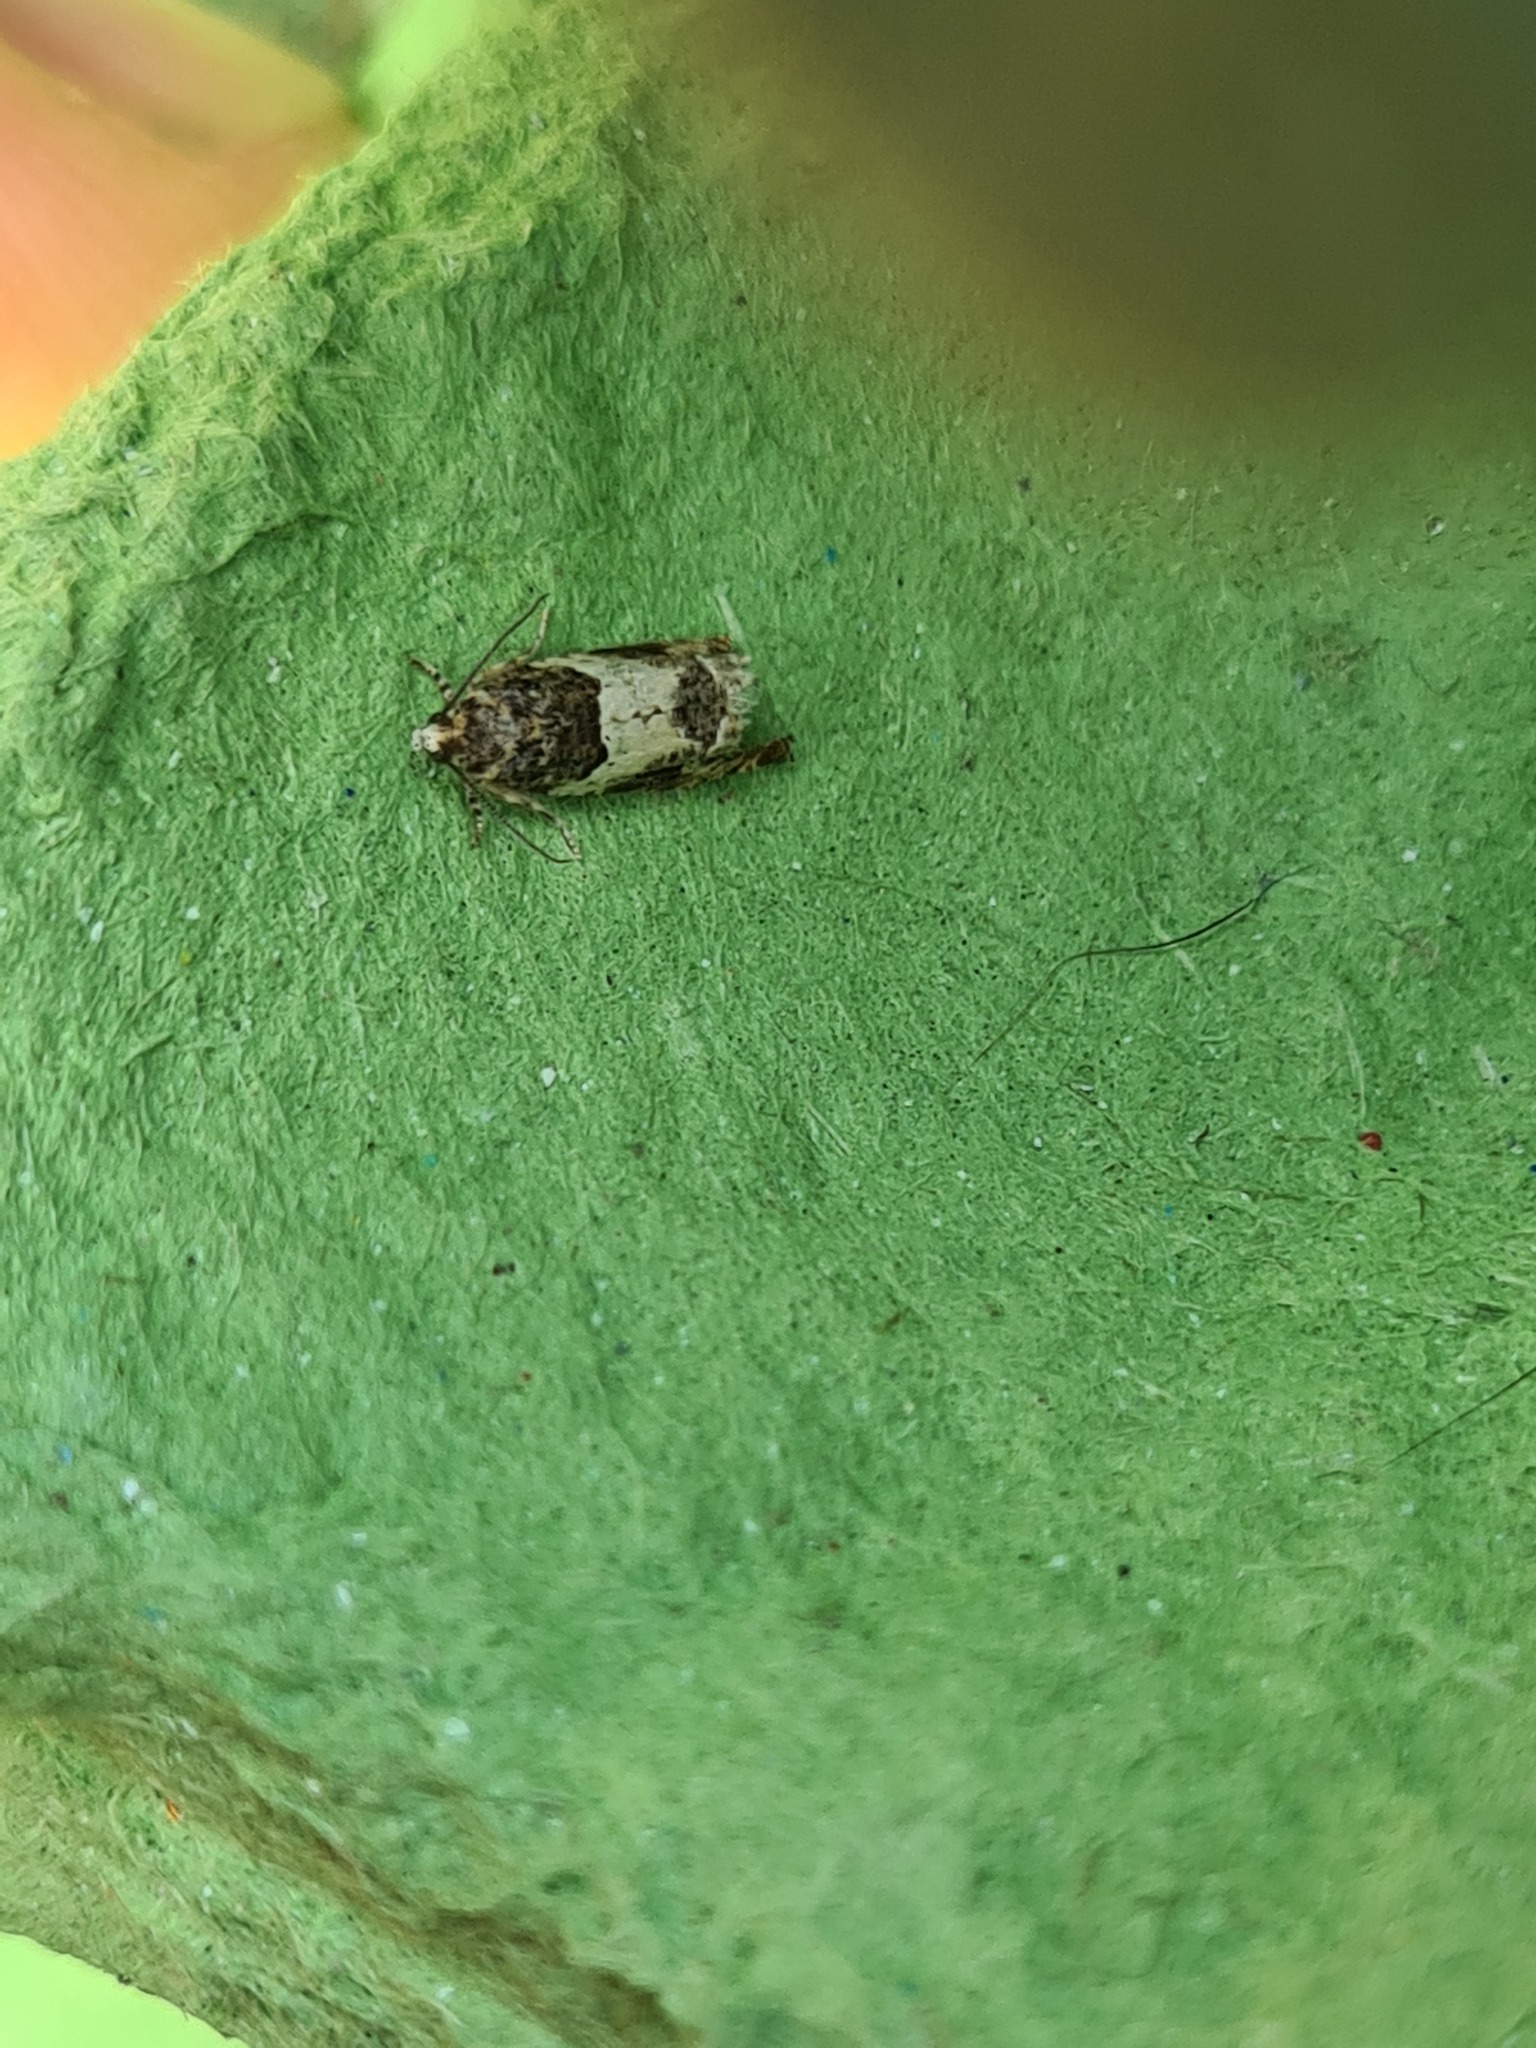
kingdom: Animalia
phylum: Arthropoda
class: Insecta
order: Lepidoptera
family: Tortricidae
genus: Gypsonoma
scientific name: Gypsonoma sociana
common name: White cloaked shoot
